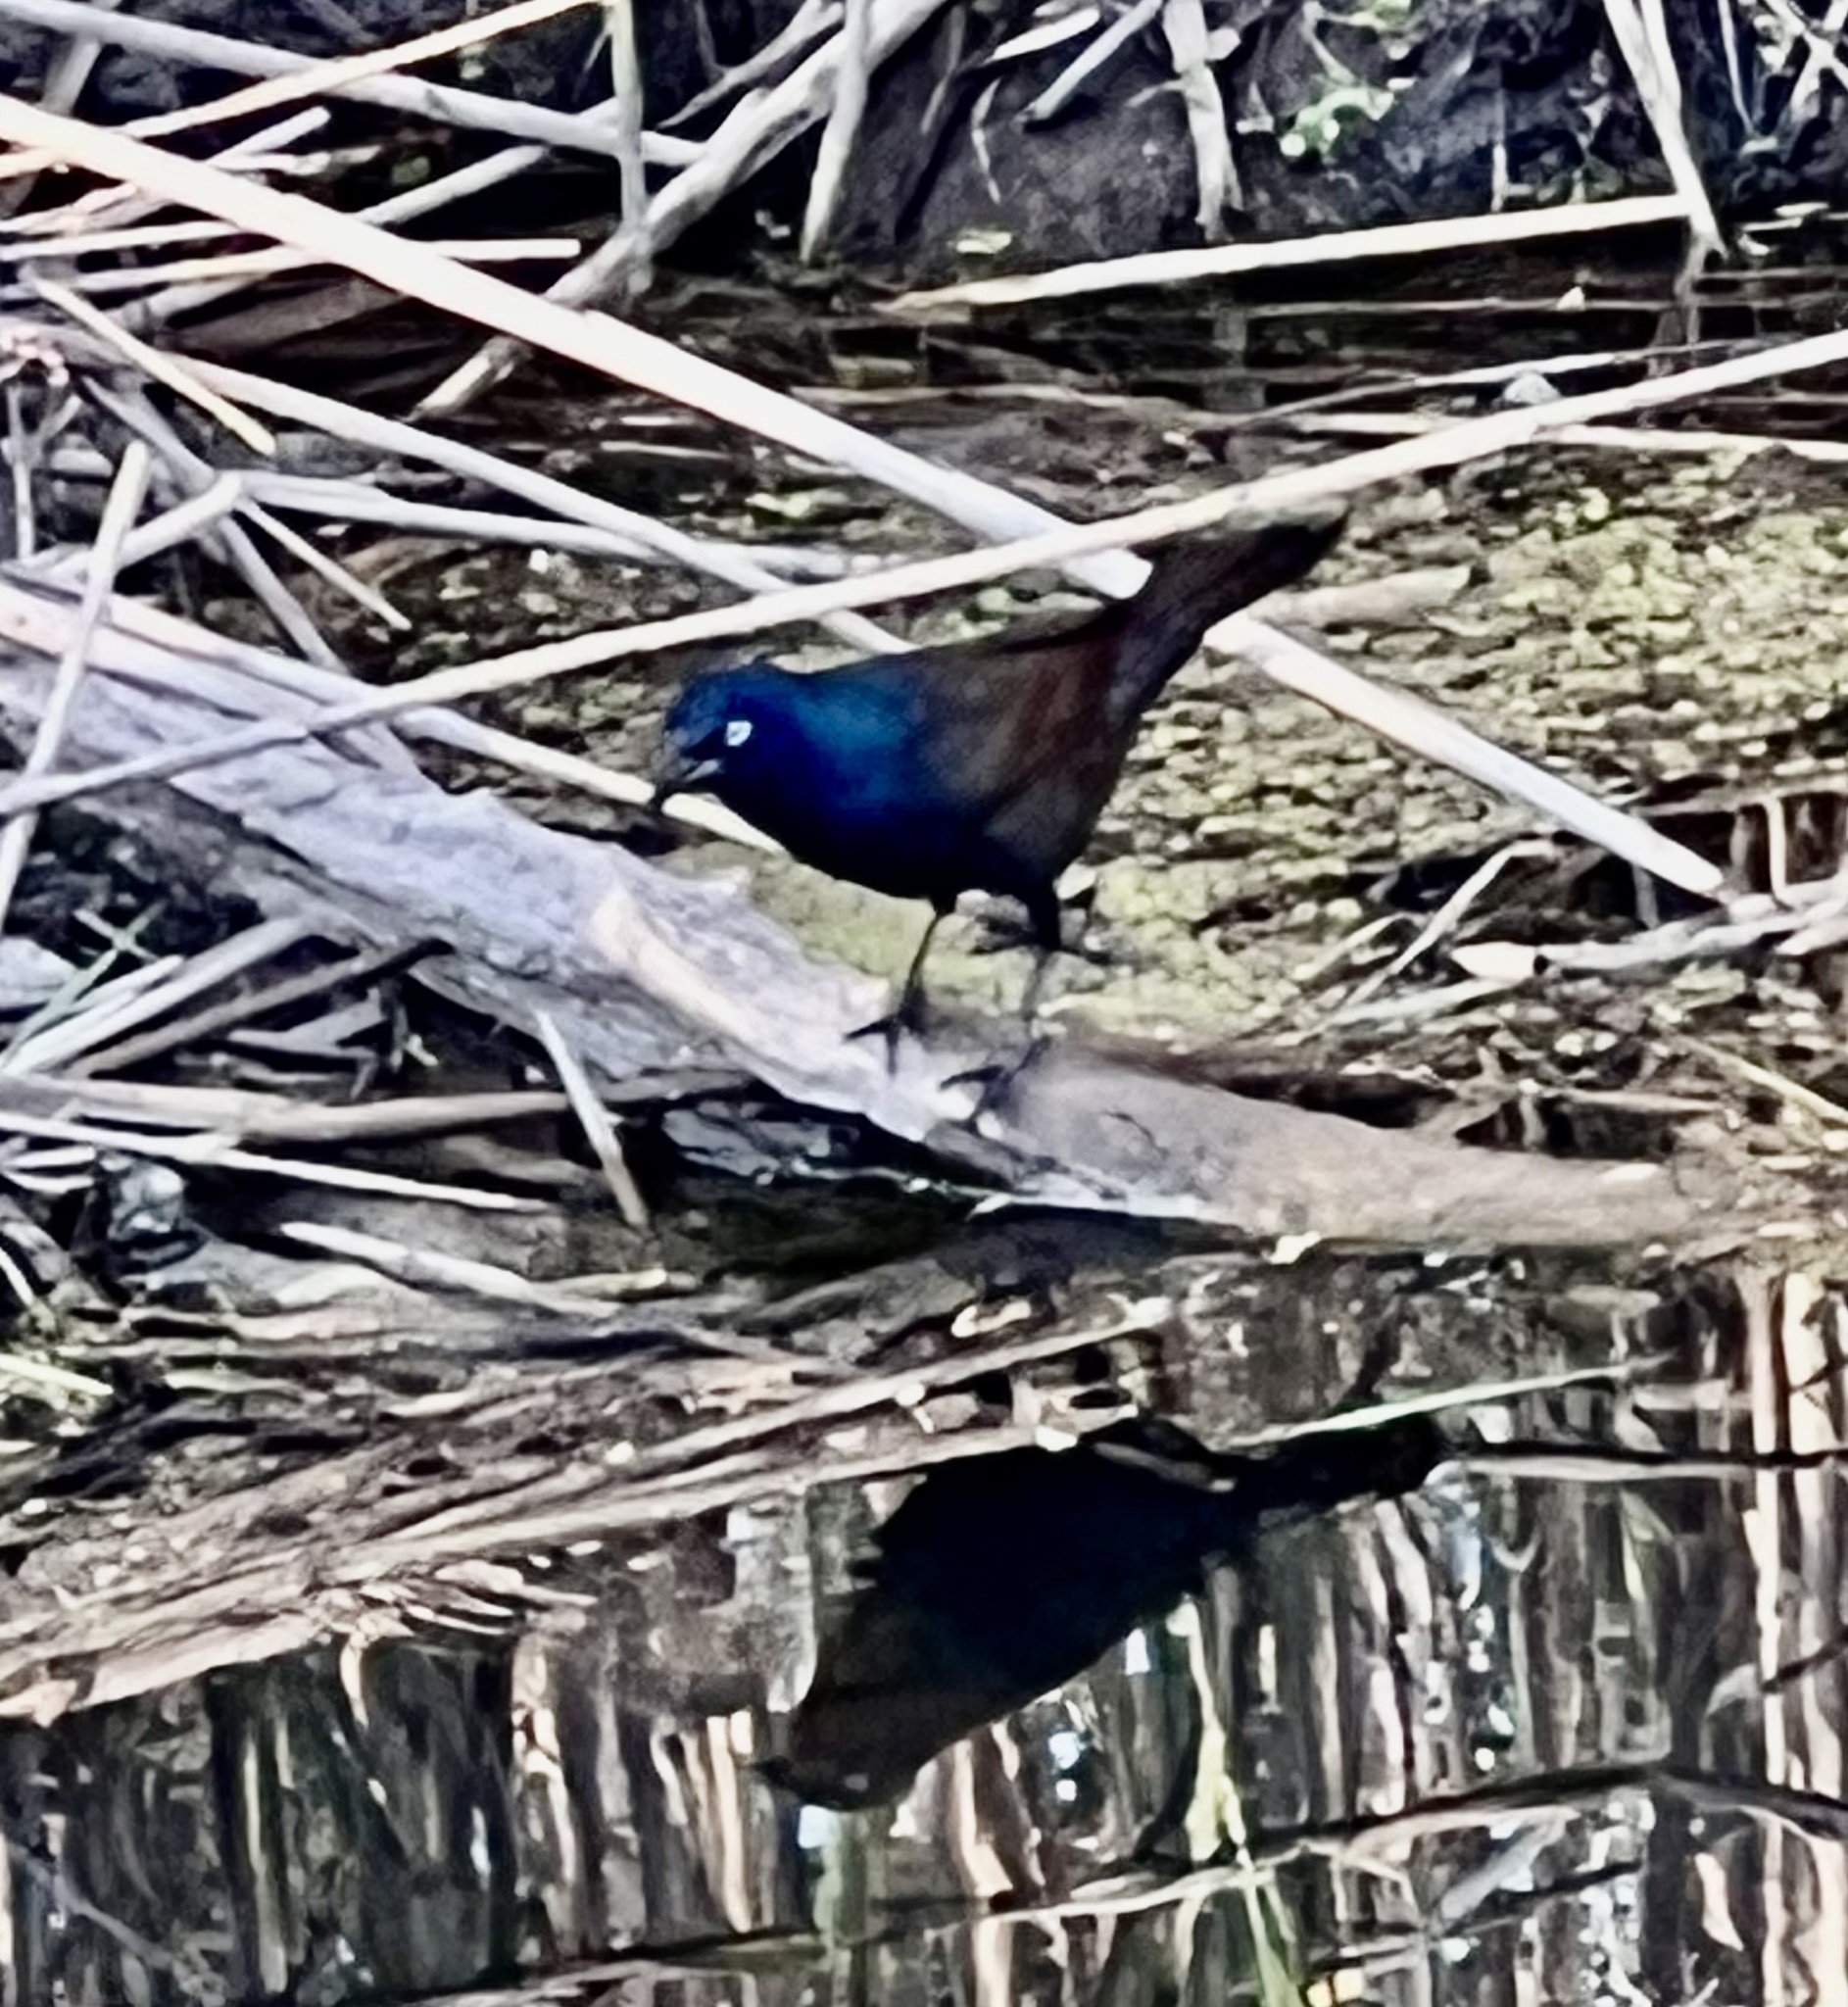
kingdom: Animalia
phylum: Chordata
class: Aves
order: Passeriformes
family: Icteridae
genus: Quiscalus
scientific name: Quiscalus quiscula
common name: Common grackle
